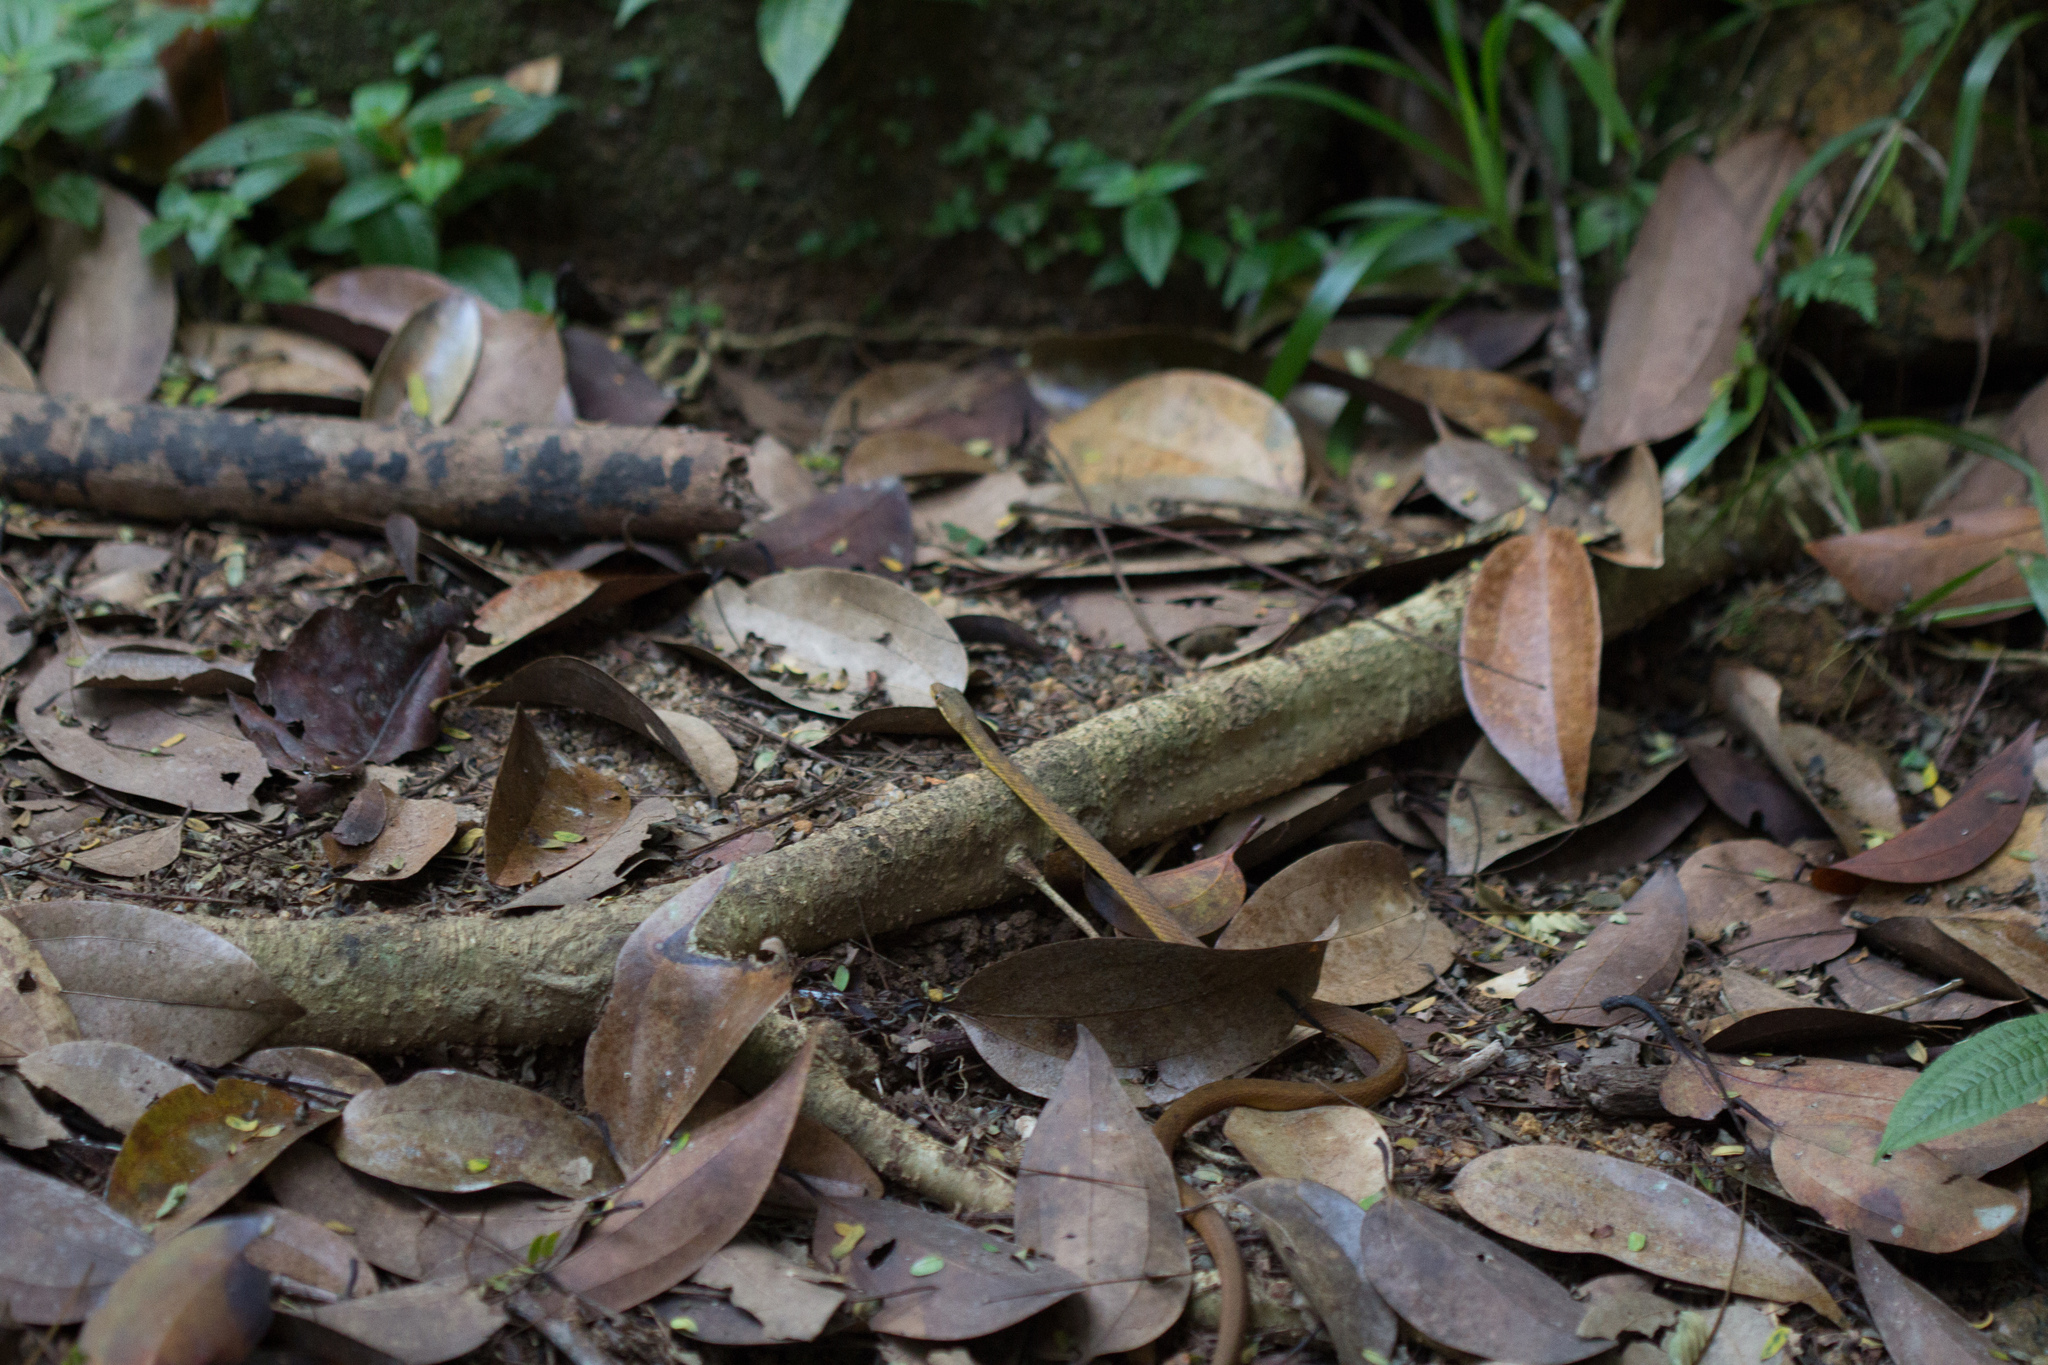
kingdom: Animalia
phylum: Chordata
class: Squamata
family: Colubridae
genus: Lycognathophis
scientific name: Lycognathophis seychellensis
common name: Seychelles wolf snake
